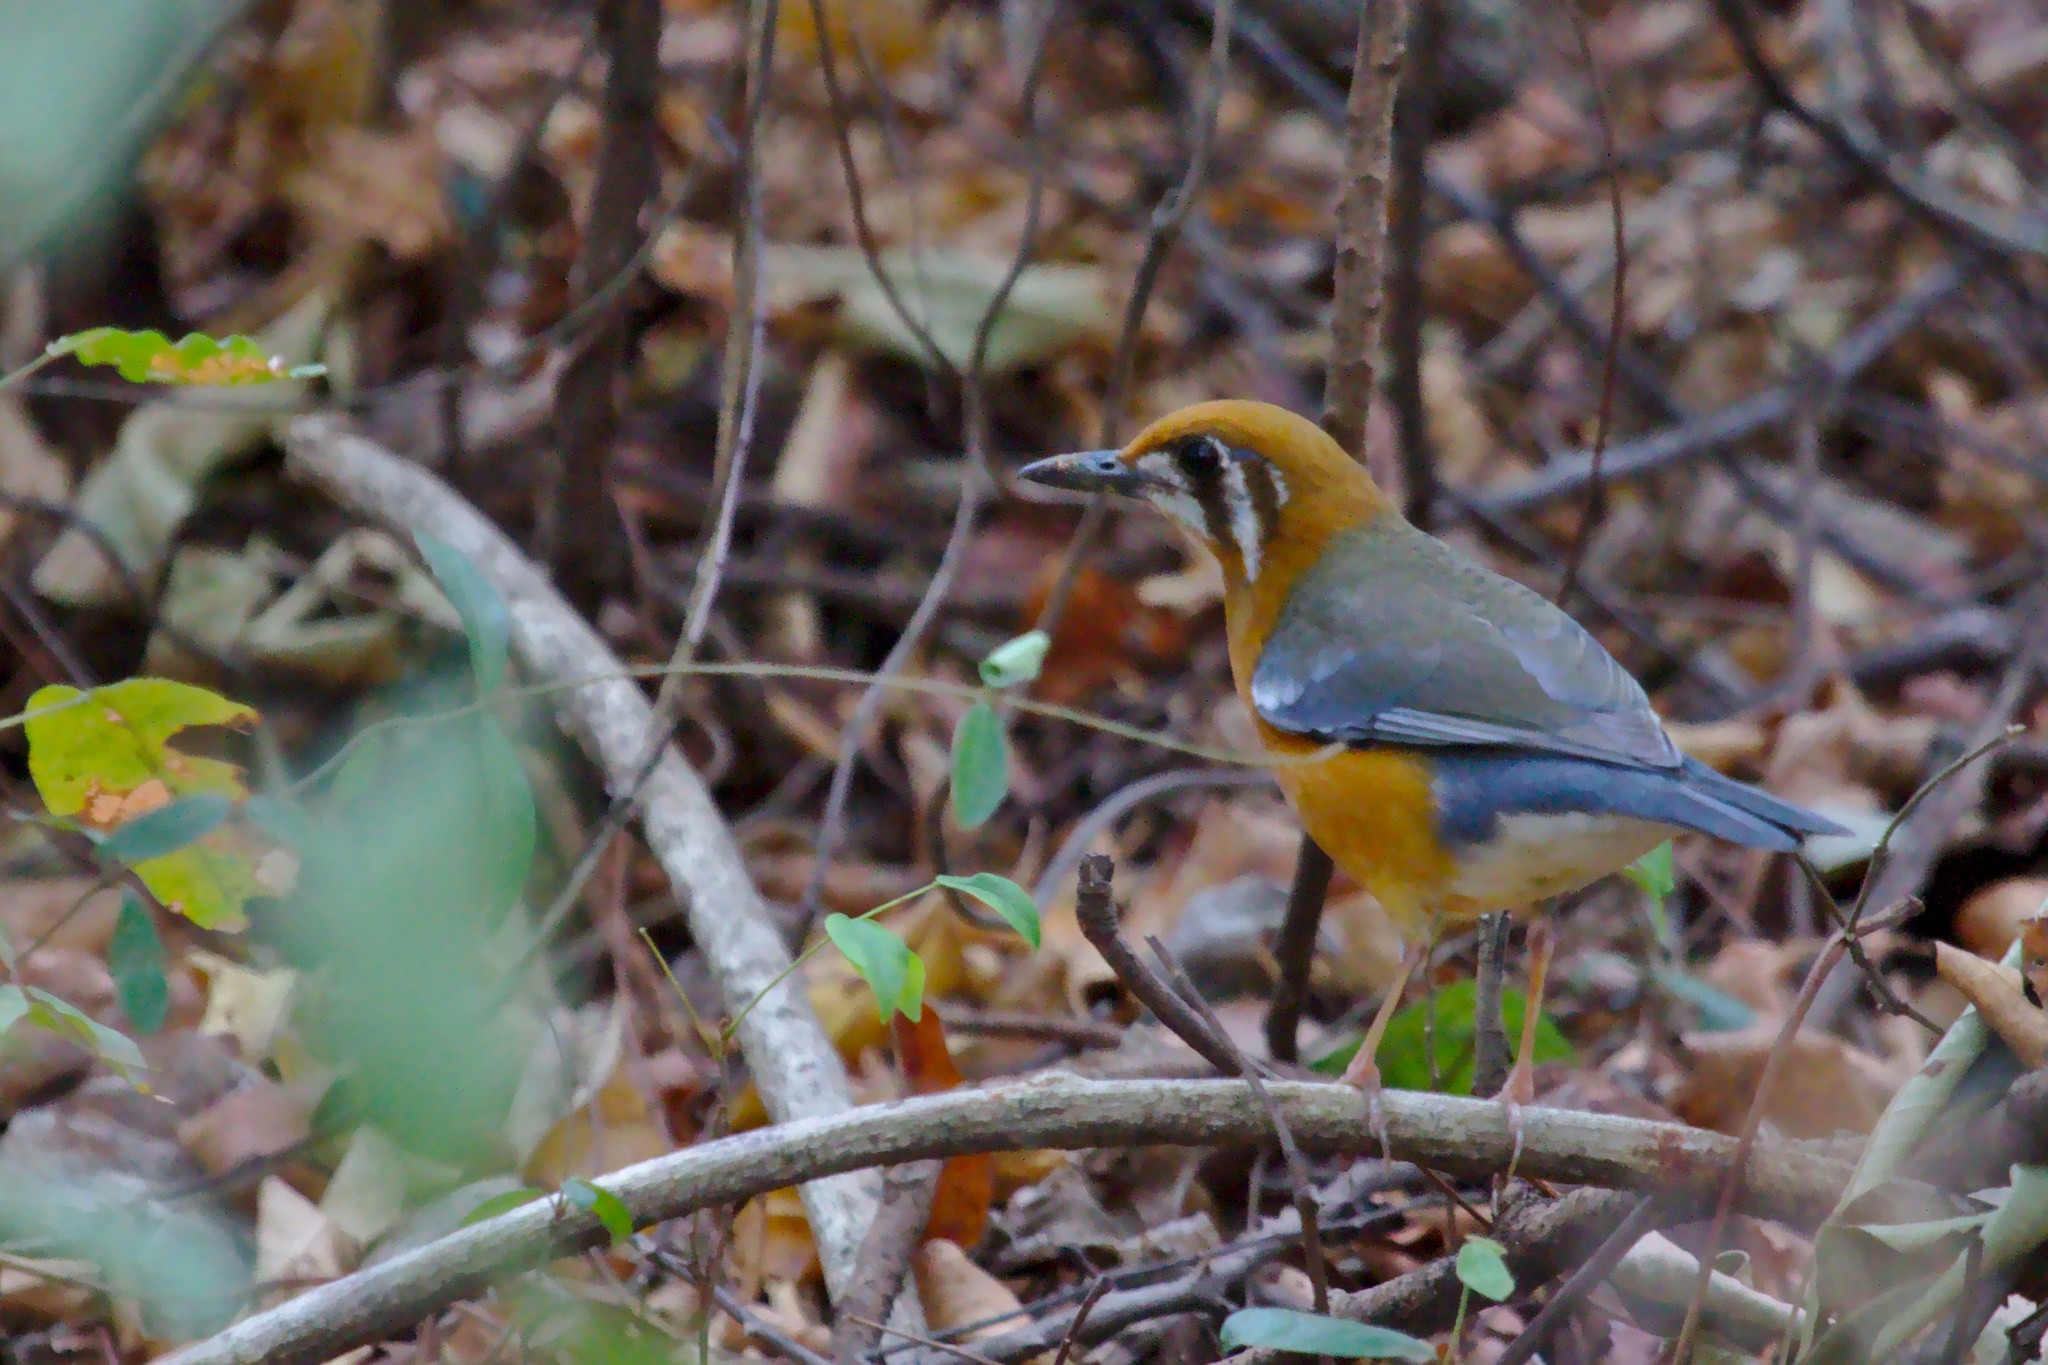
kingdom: Animalia
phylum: Chordata
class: Aves
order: Passeriformes
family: Turdidae
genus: Geokichla
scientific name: Geokichla citrina
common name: Orange-headed thrush
